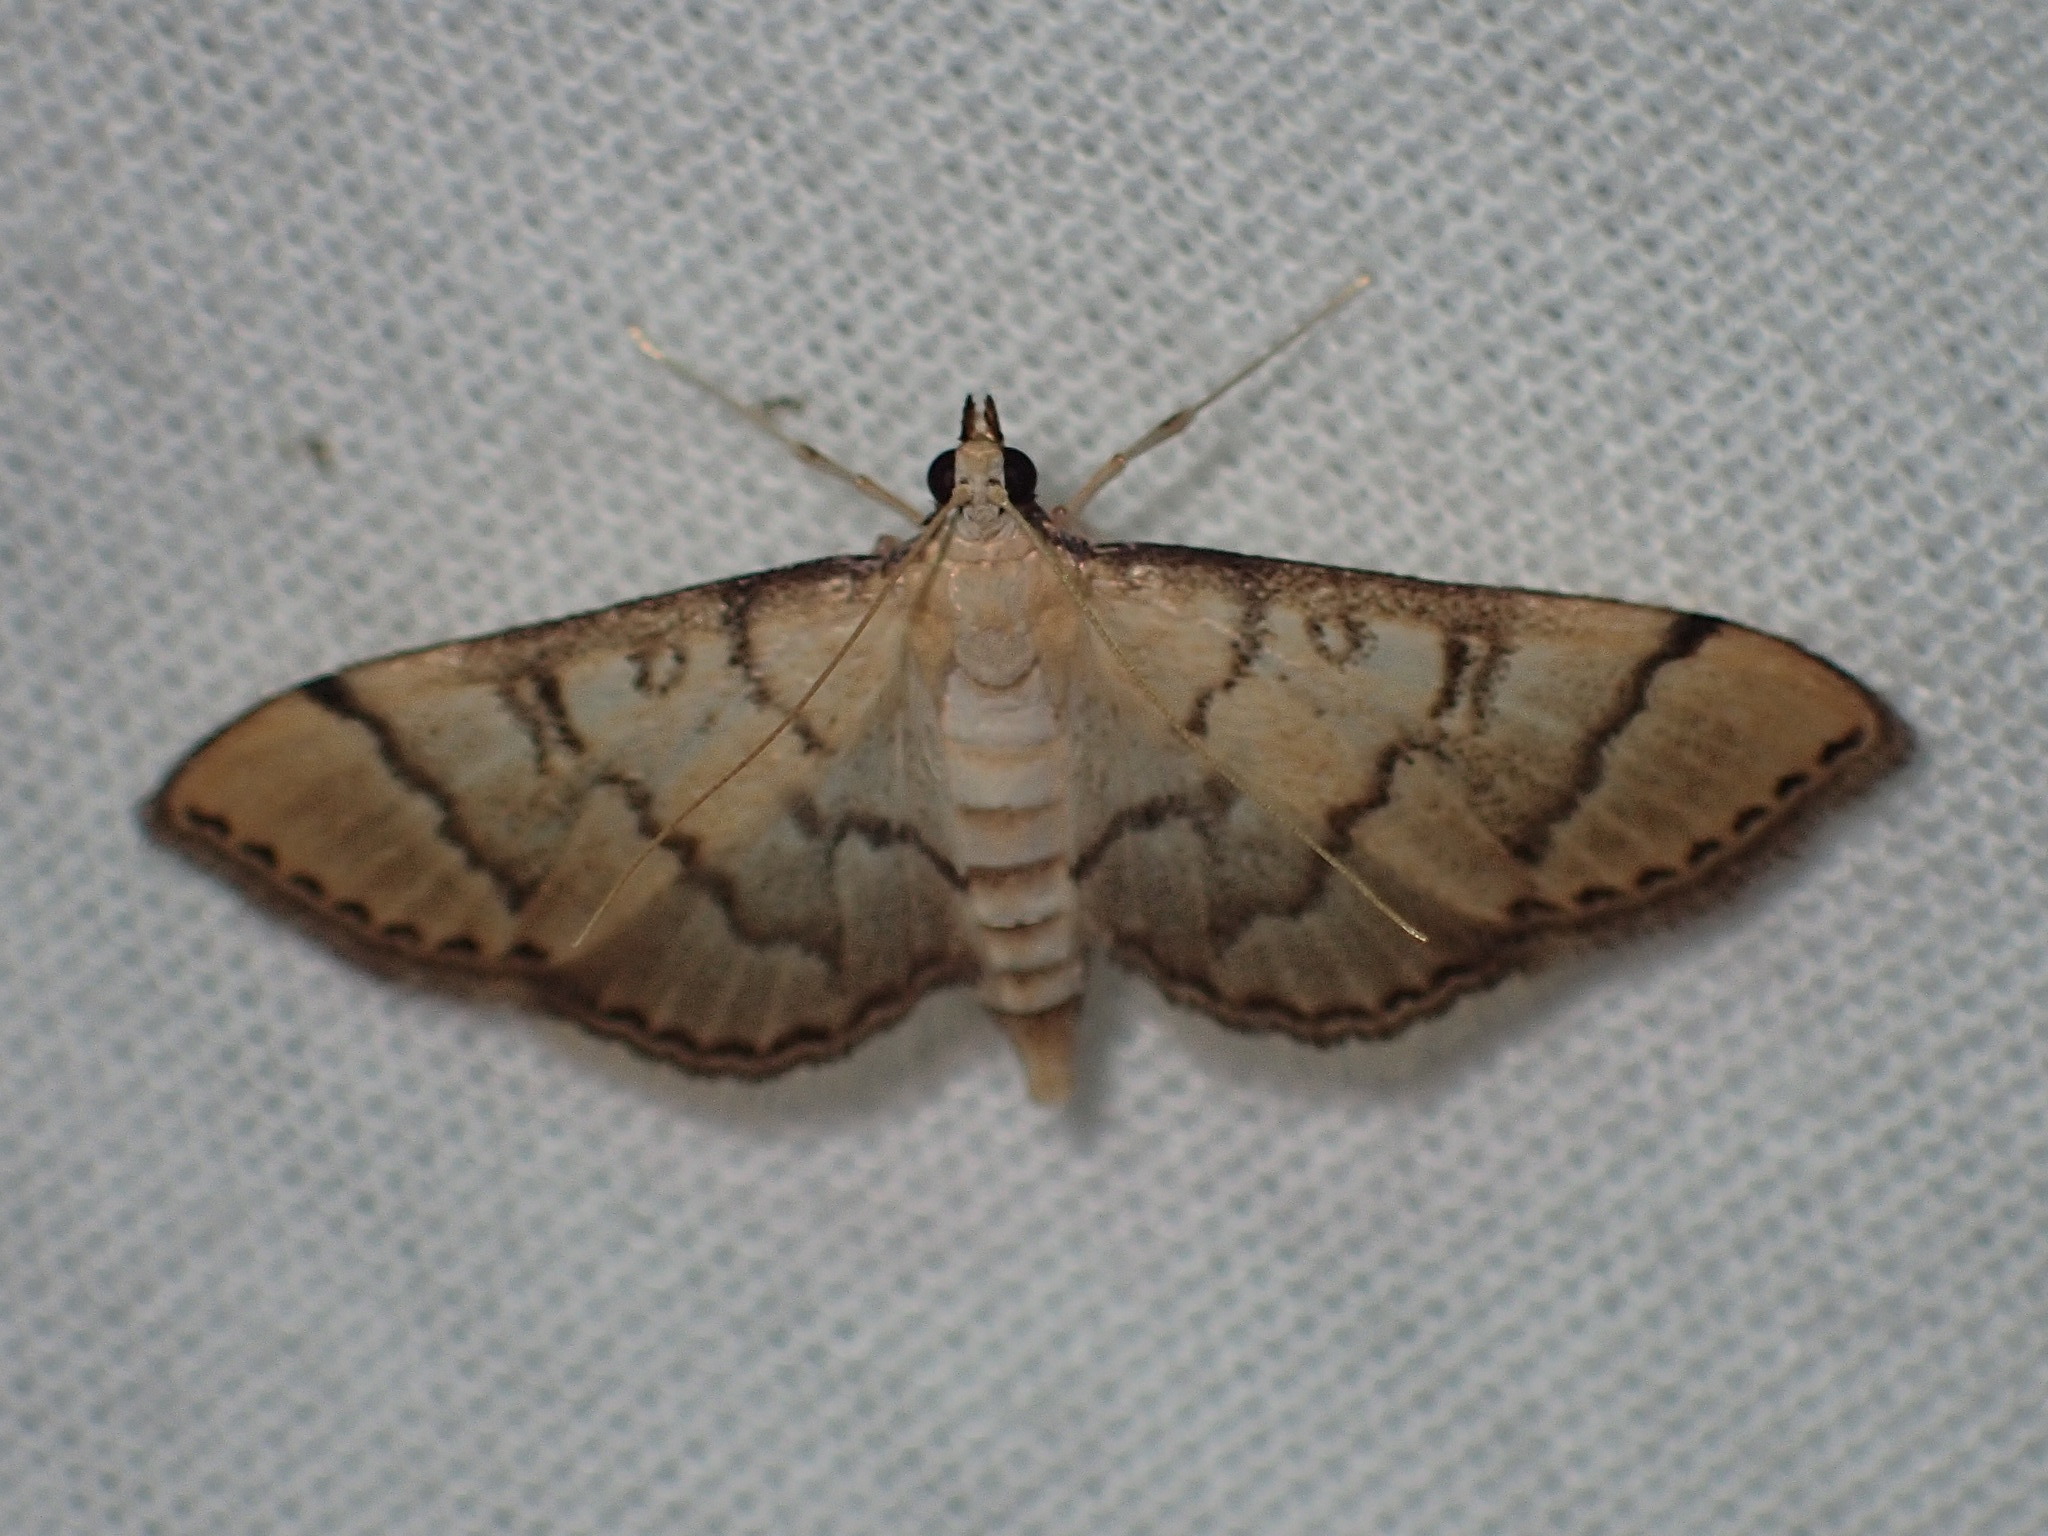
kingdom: Animalia
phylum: Arthropoda
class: Insecta
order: Lepidoptera
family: Crambidae
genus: Lamprosema
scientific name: Lamprosema Blepharomastix ranalis
